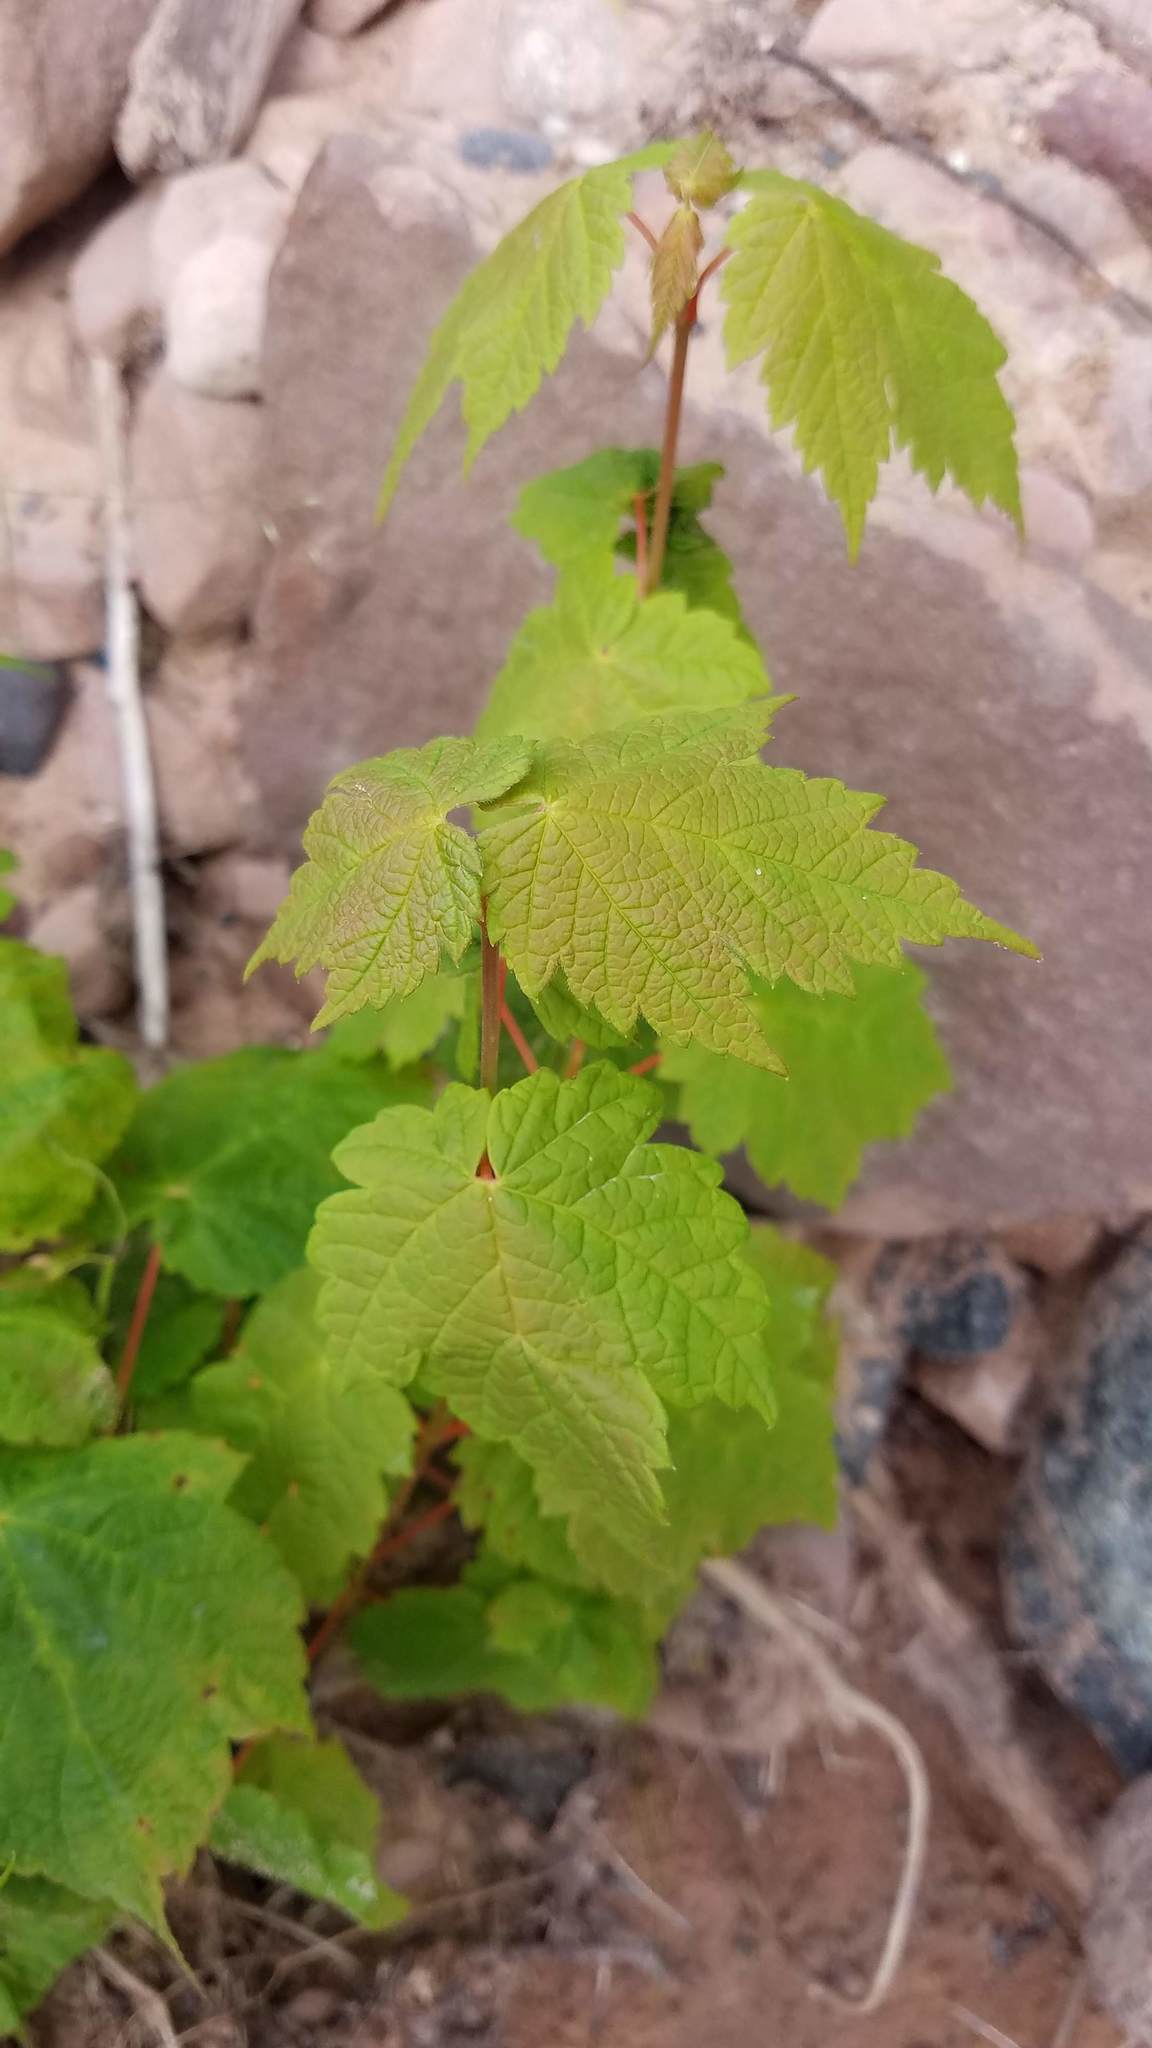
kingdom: Plantae
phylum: Tracheophyta
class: Magnoliopsida
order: Sapindales
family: Sapindaceae
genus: Acer
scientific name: Acer spicatum
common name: Mountain maple
